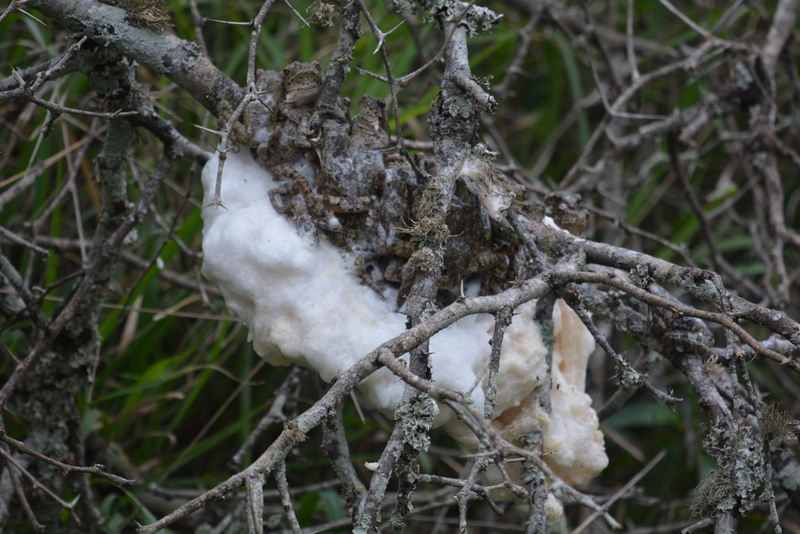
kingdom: Animalia
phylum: Chordata
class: Amphibia
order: Anura
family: Rhacophoridae
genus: Chiromantis
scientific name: Chiromantis xerampelina
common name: African gray treefrog
